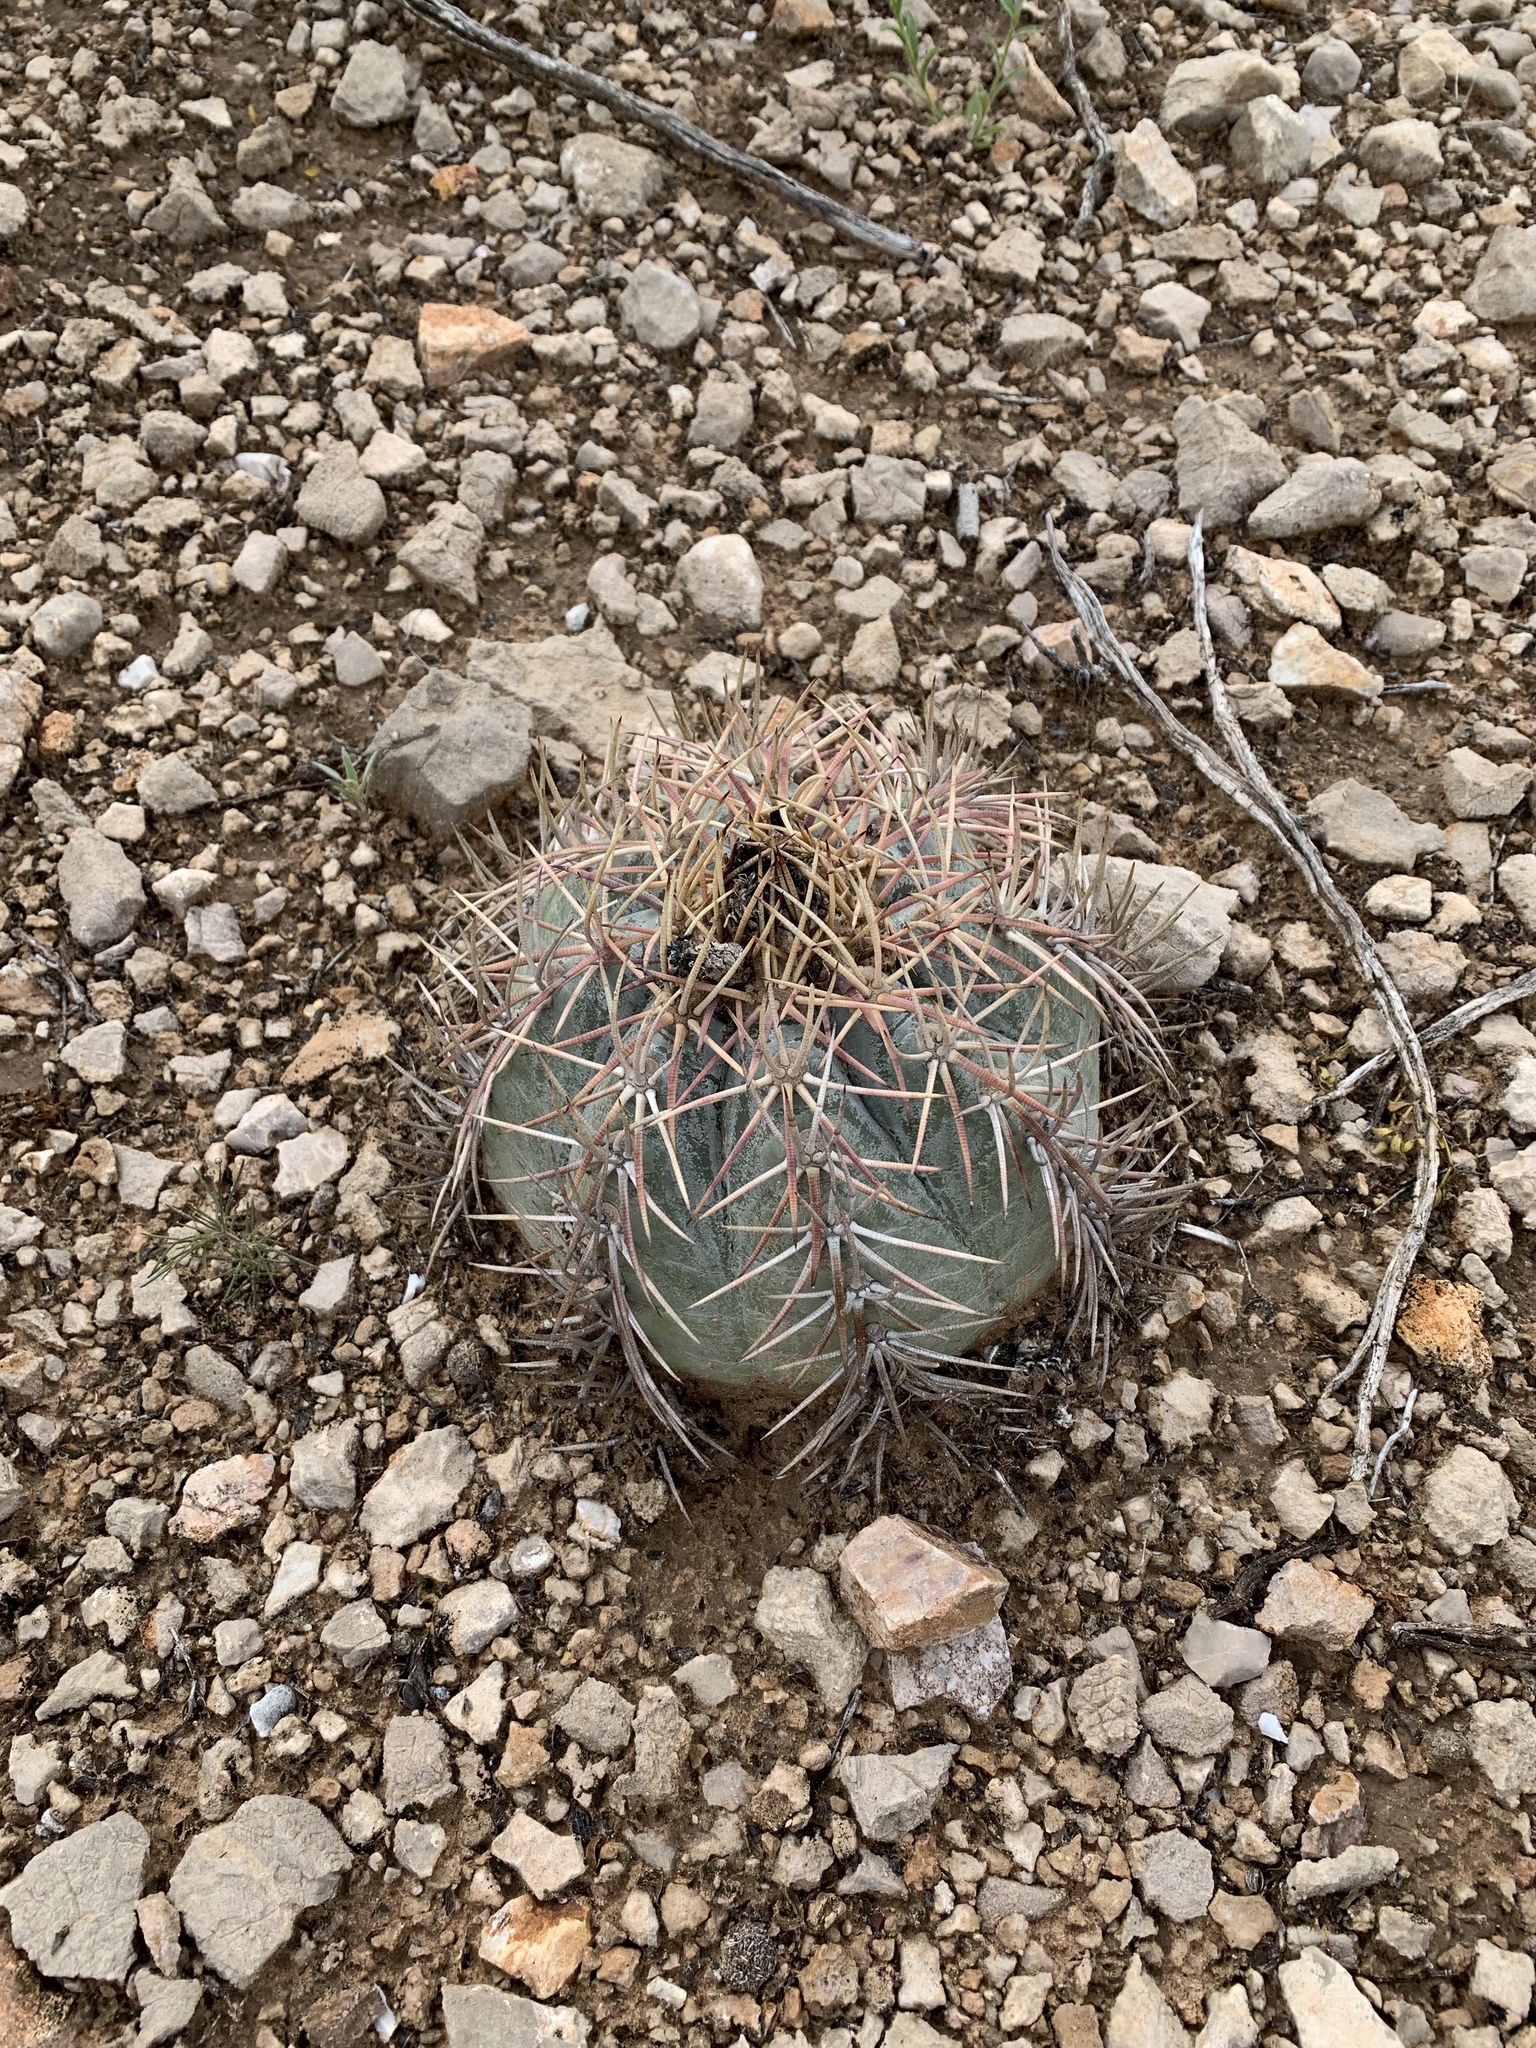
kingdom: Plantae
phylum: Tracheophyta
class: Magnoliopsida
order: Caryophyllales
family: Cactaceae
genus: Echinocactus
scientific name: Echinocactus horizonthalonius
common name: Devilshead
